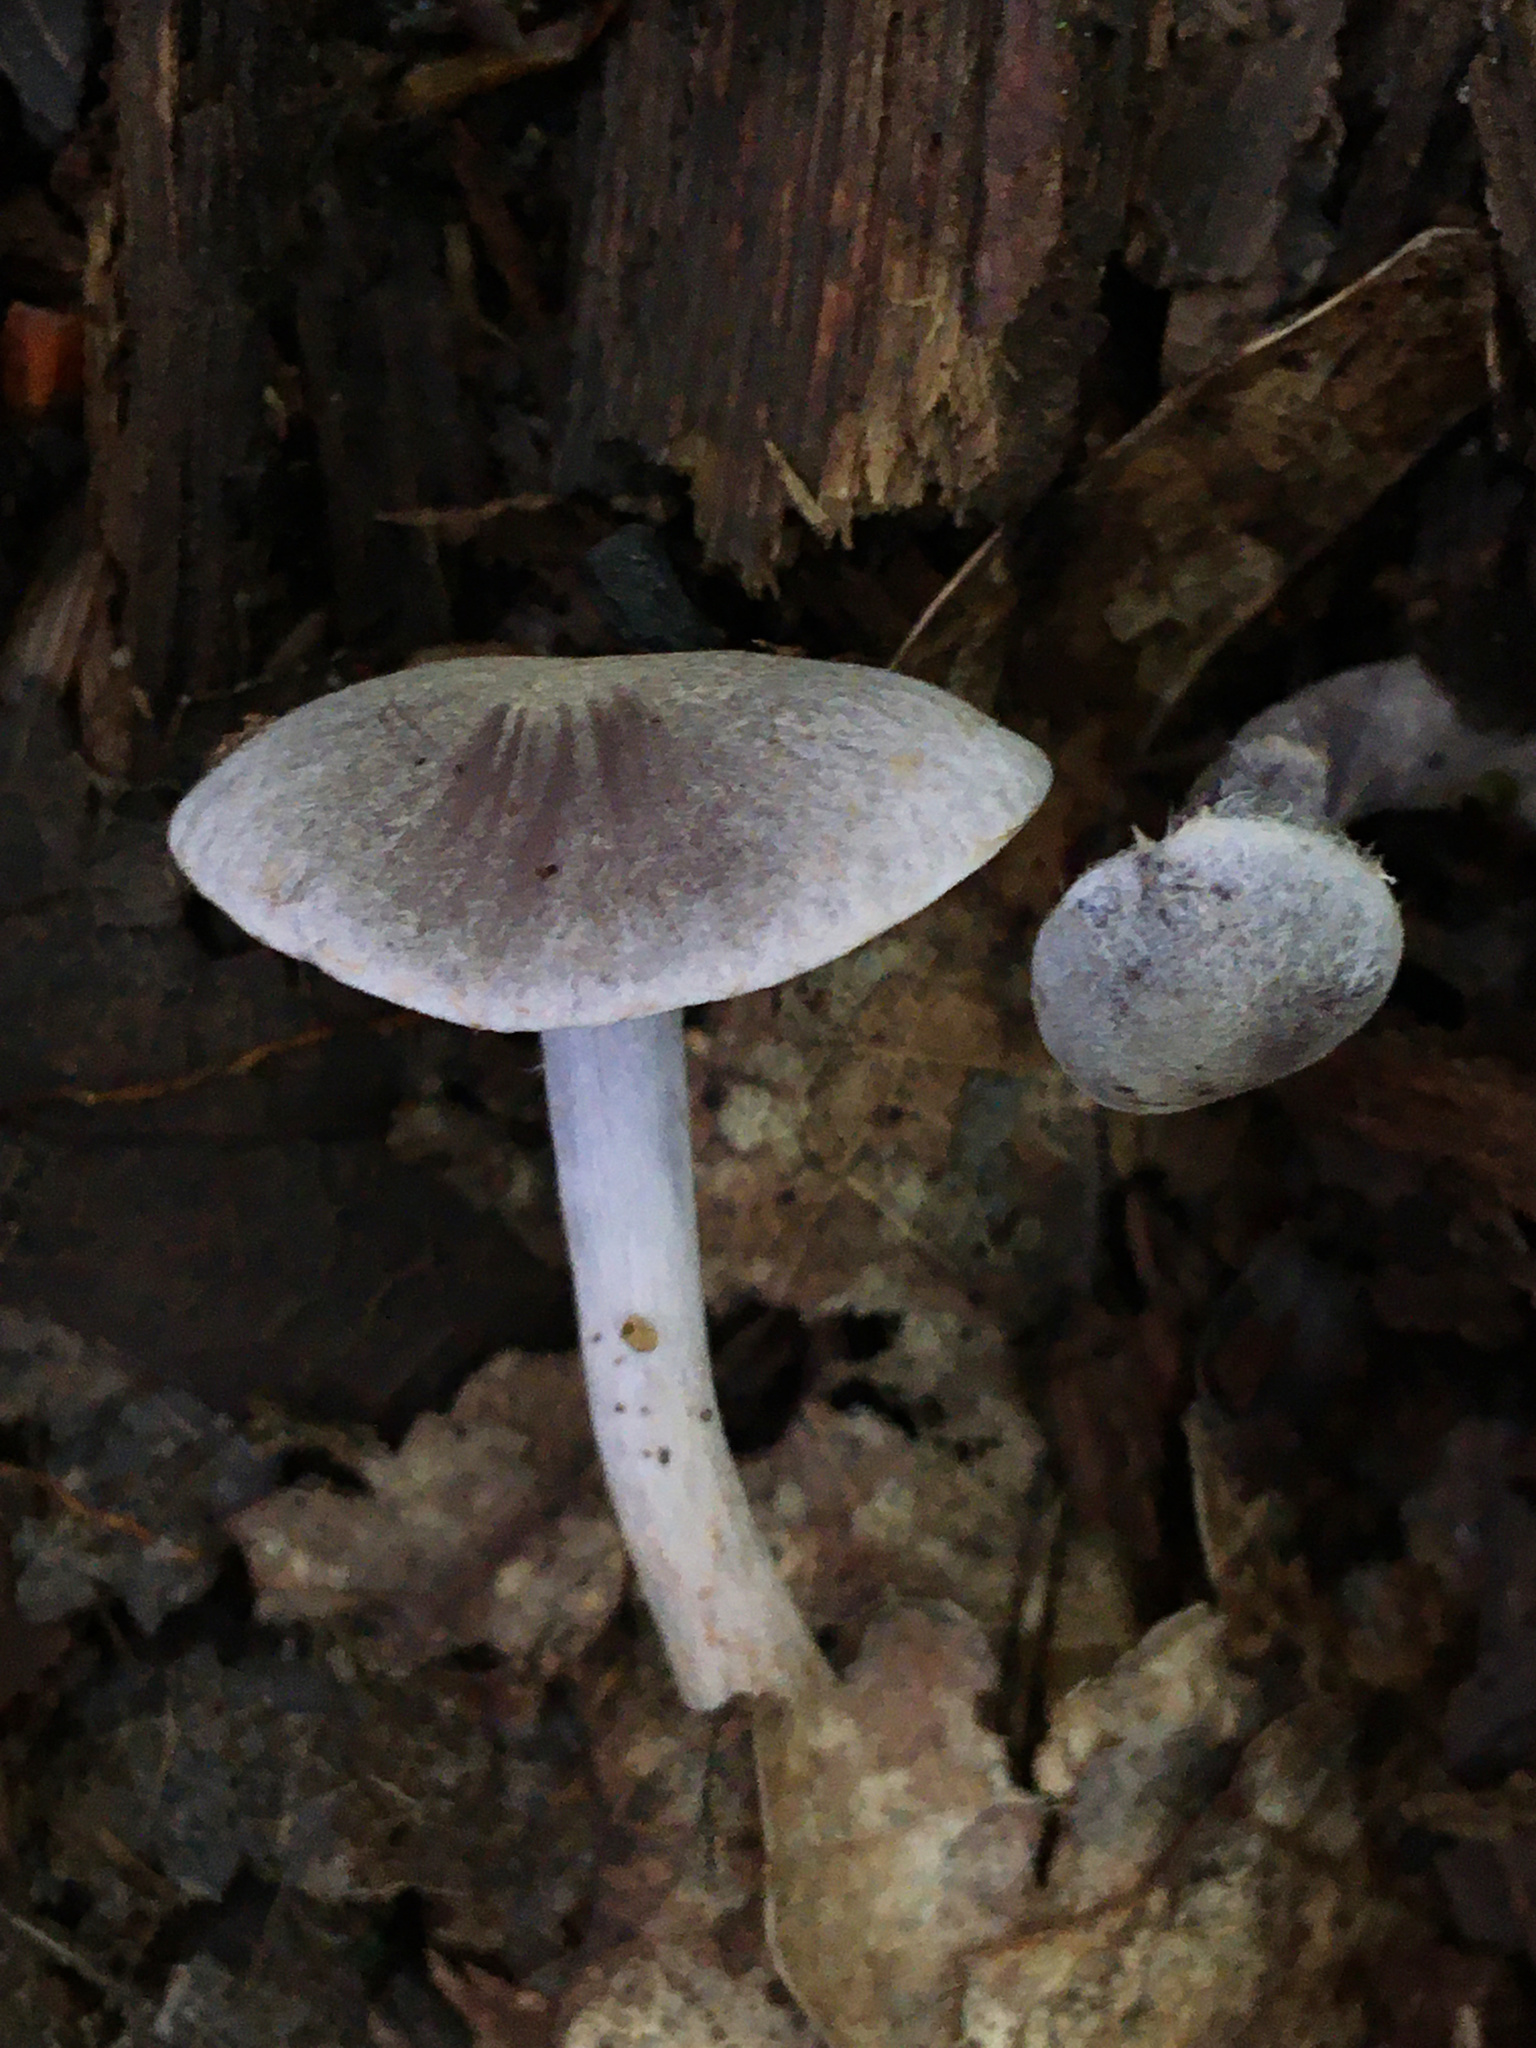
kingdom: Fungi
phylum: Basidiomycota
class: Agaricomycetes
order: Agaricales
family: Cortinariaceae
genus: Cortinarius
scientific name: Cortinarius perviolaceus
